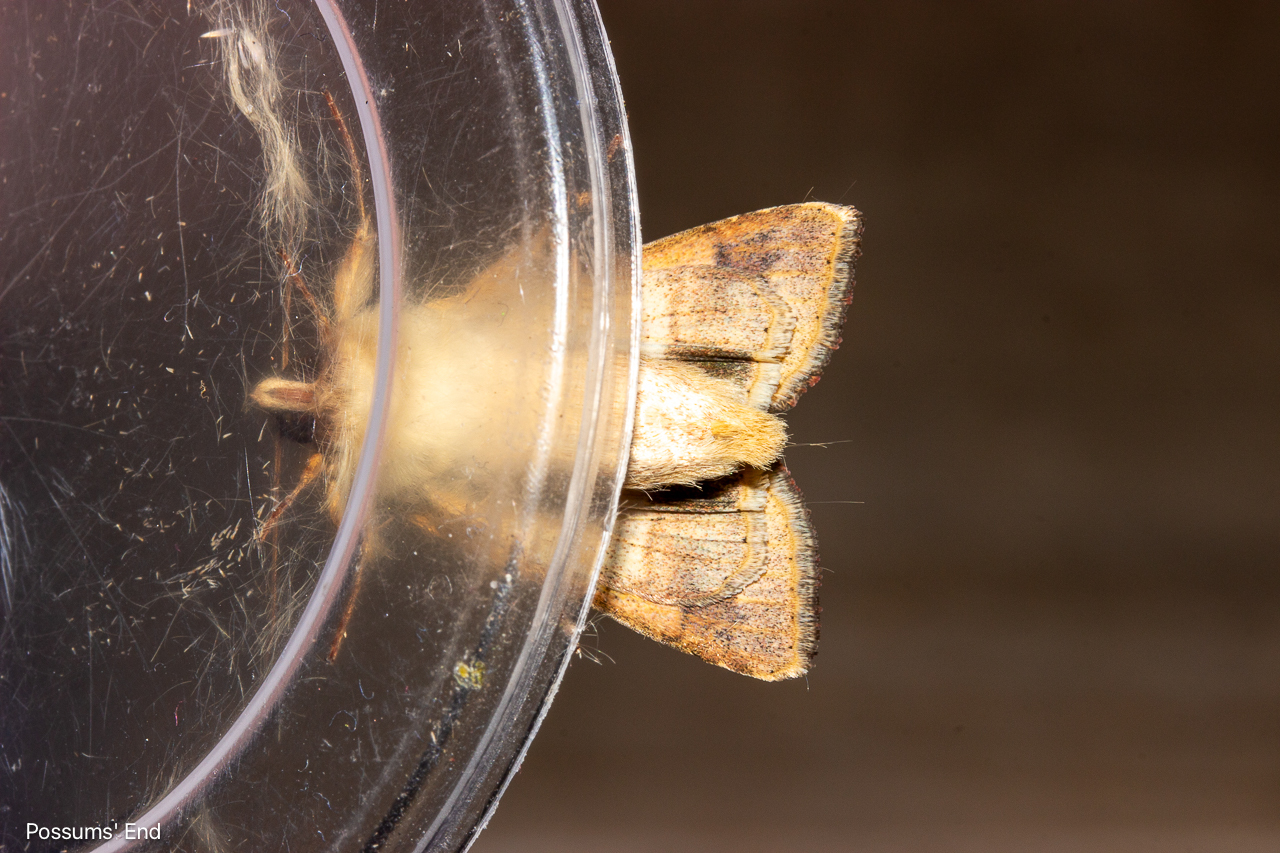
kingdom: Animalia
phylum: Arthropoda
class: Insecta
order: Lepidoptera
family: Noctuidae
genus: Helicoverpa
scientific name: Helicoverpa armigera
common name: Cotton bollworm
